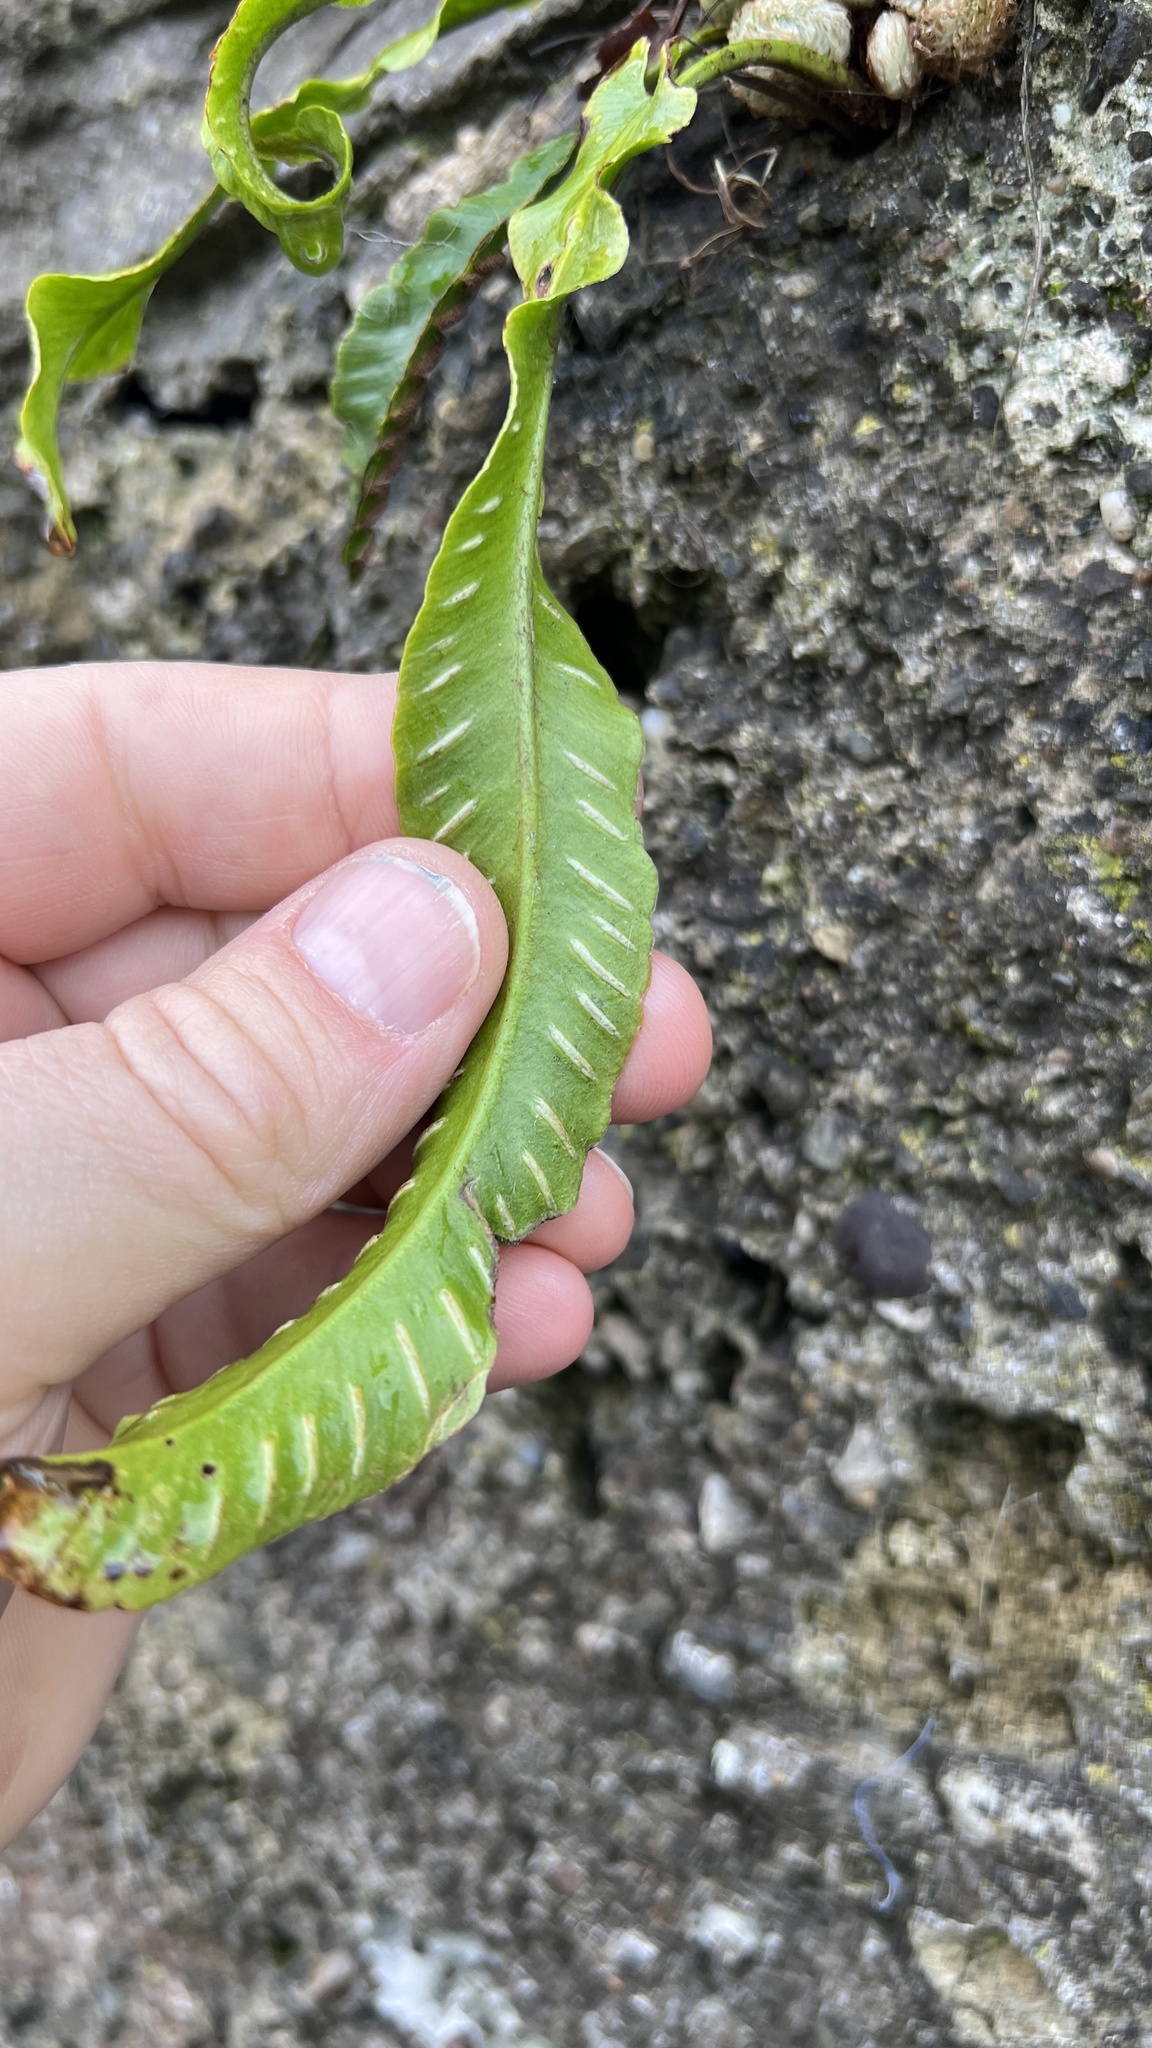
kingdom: Plantae
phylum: Tracheophyta
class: Polypodiopsida
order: Polypodiales
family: Aspleniaceae
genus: Asplenium
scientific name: Asplenium scolopendrium
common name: Hart's-tongue fern
